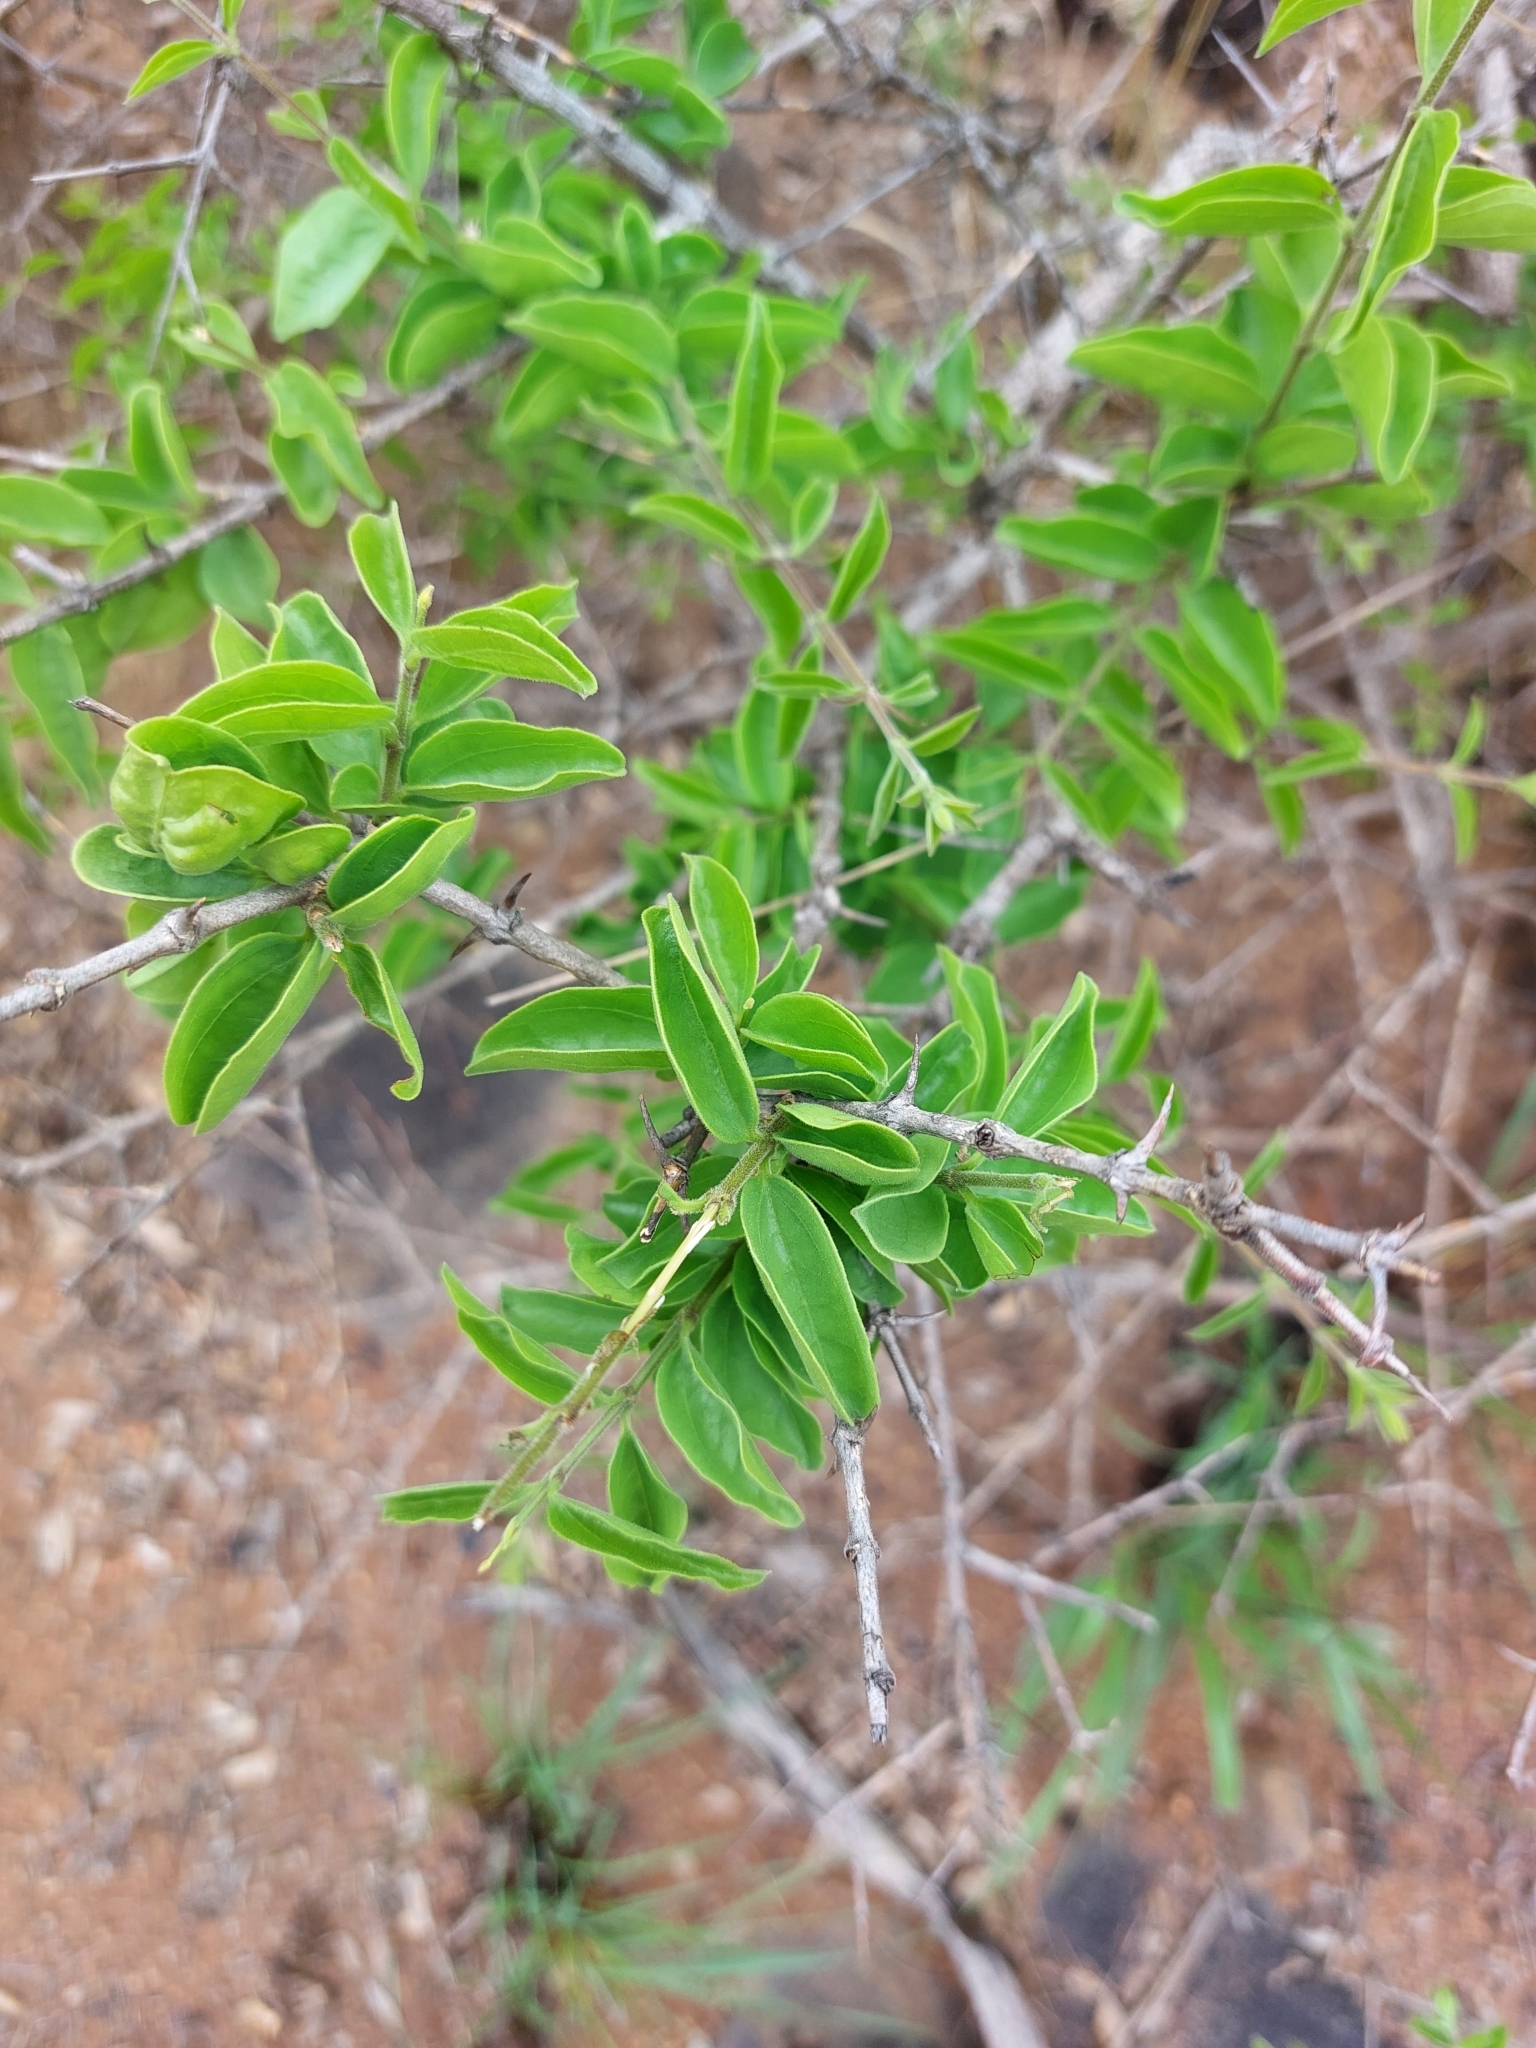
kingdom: Plantae
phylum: Tracheophyta
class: Magnoliopsida
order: Gentianales
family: Loganiaceae
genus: Strychnos
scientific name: Strychnos cocculoides
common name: Corky-bark monkey-orange
